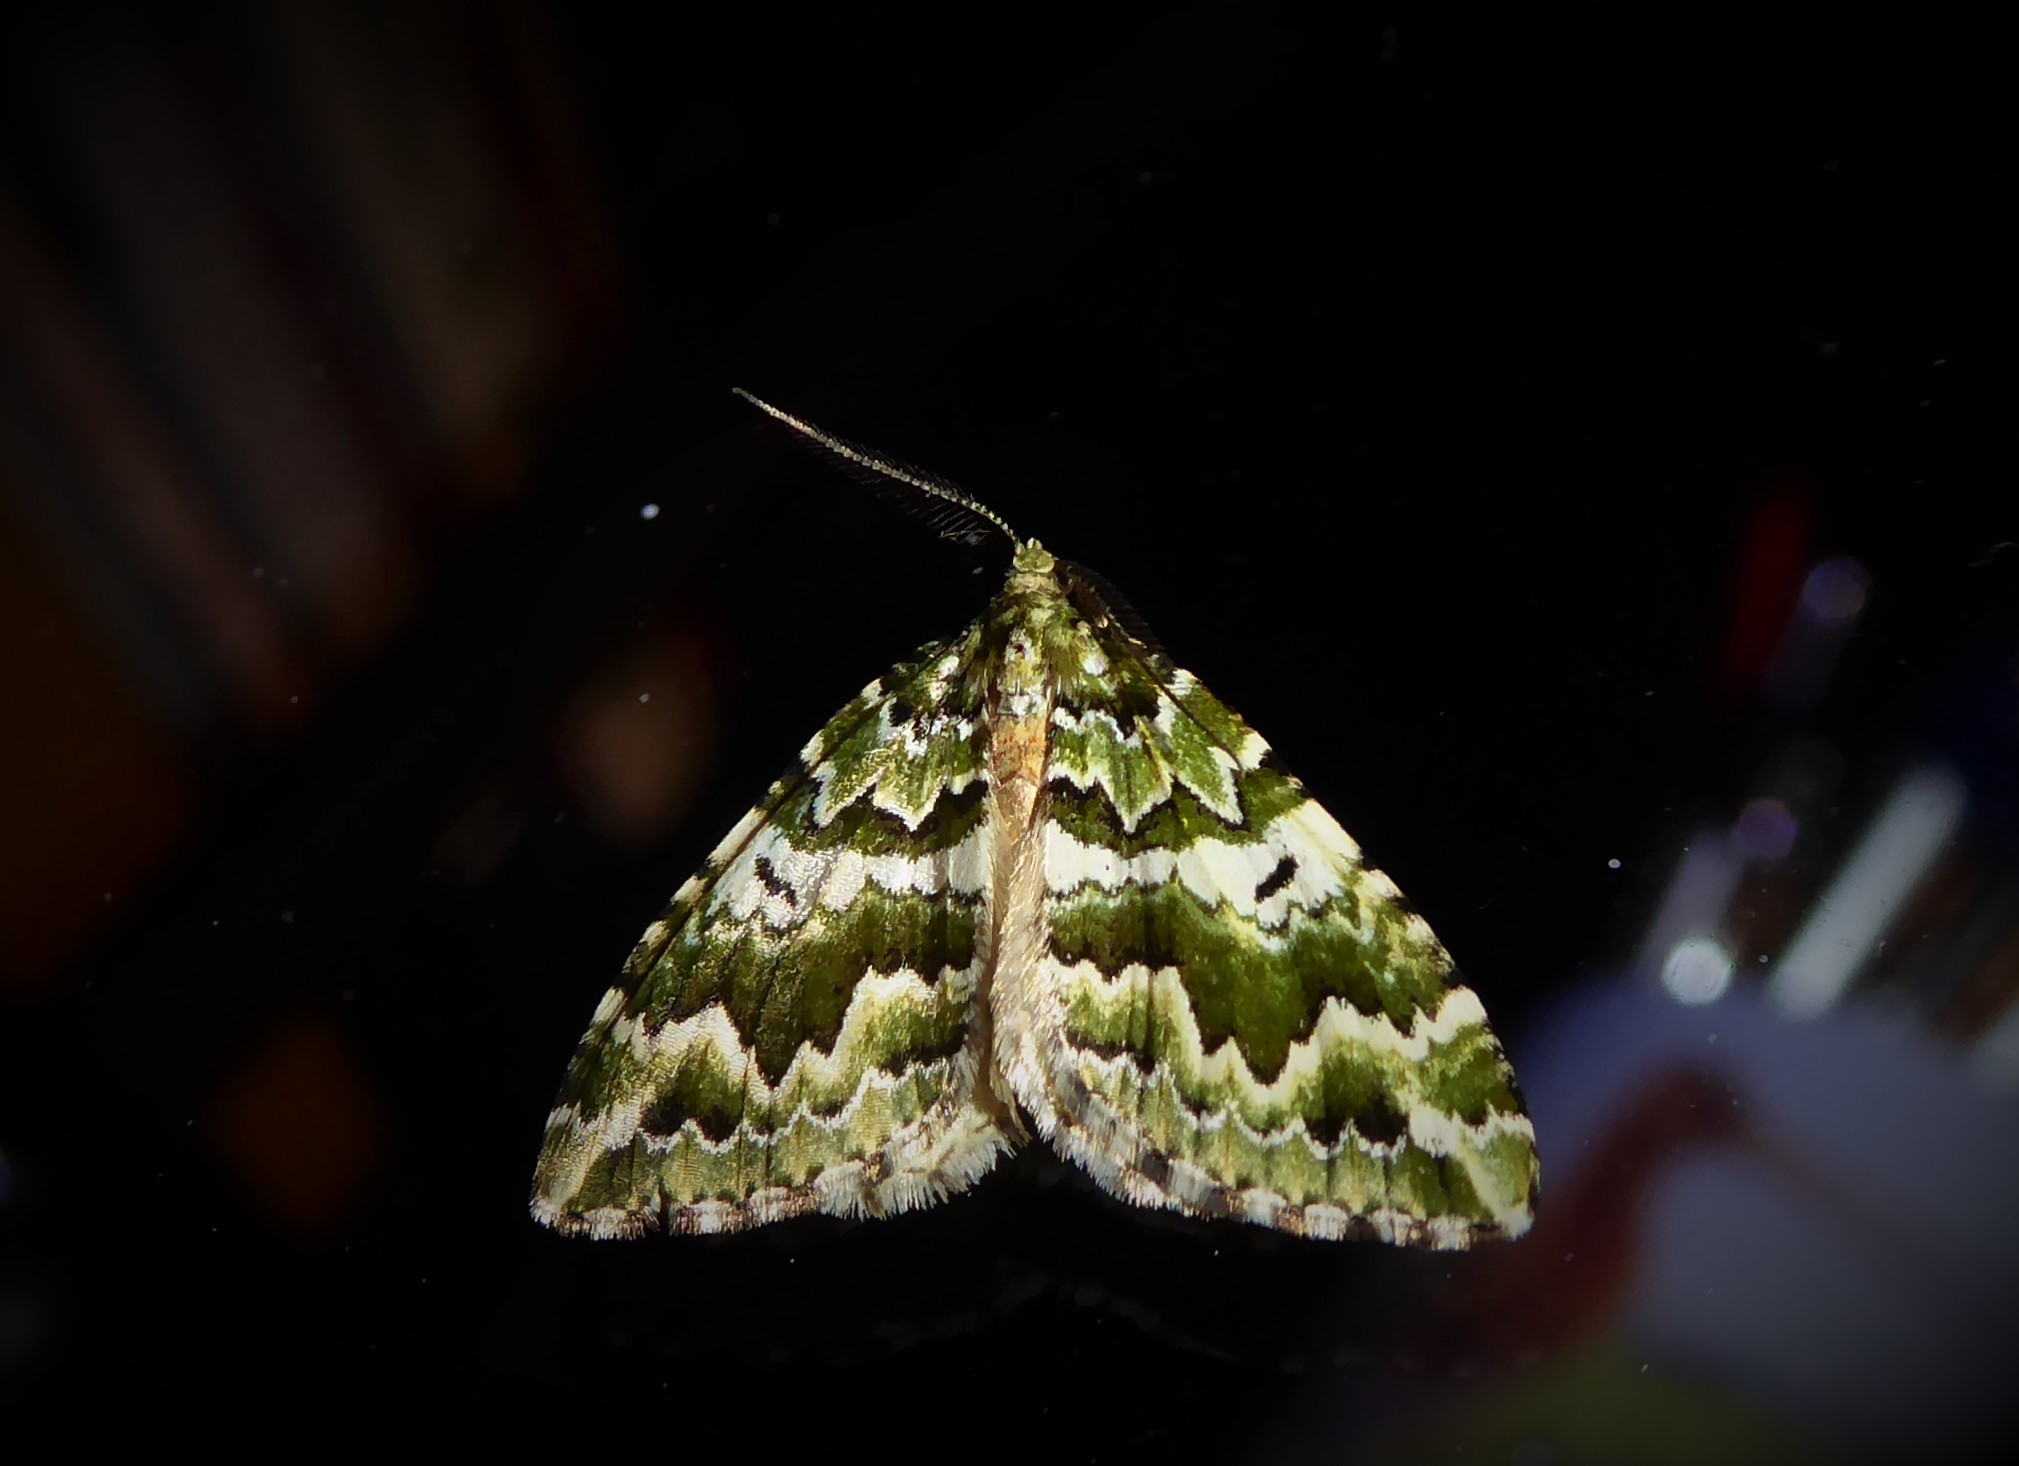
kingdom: Animalia
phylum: Arthropoda
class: Insecta
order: Lepidoptera
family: Geometridae
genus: Asaphodes
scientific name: Asaphodes beata
